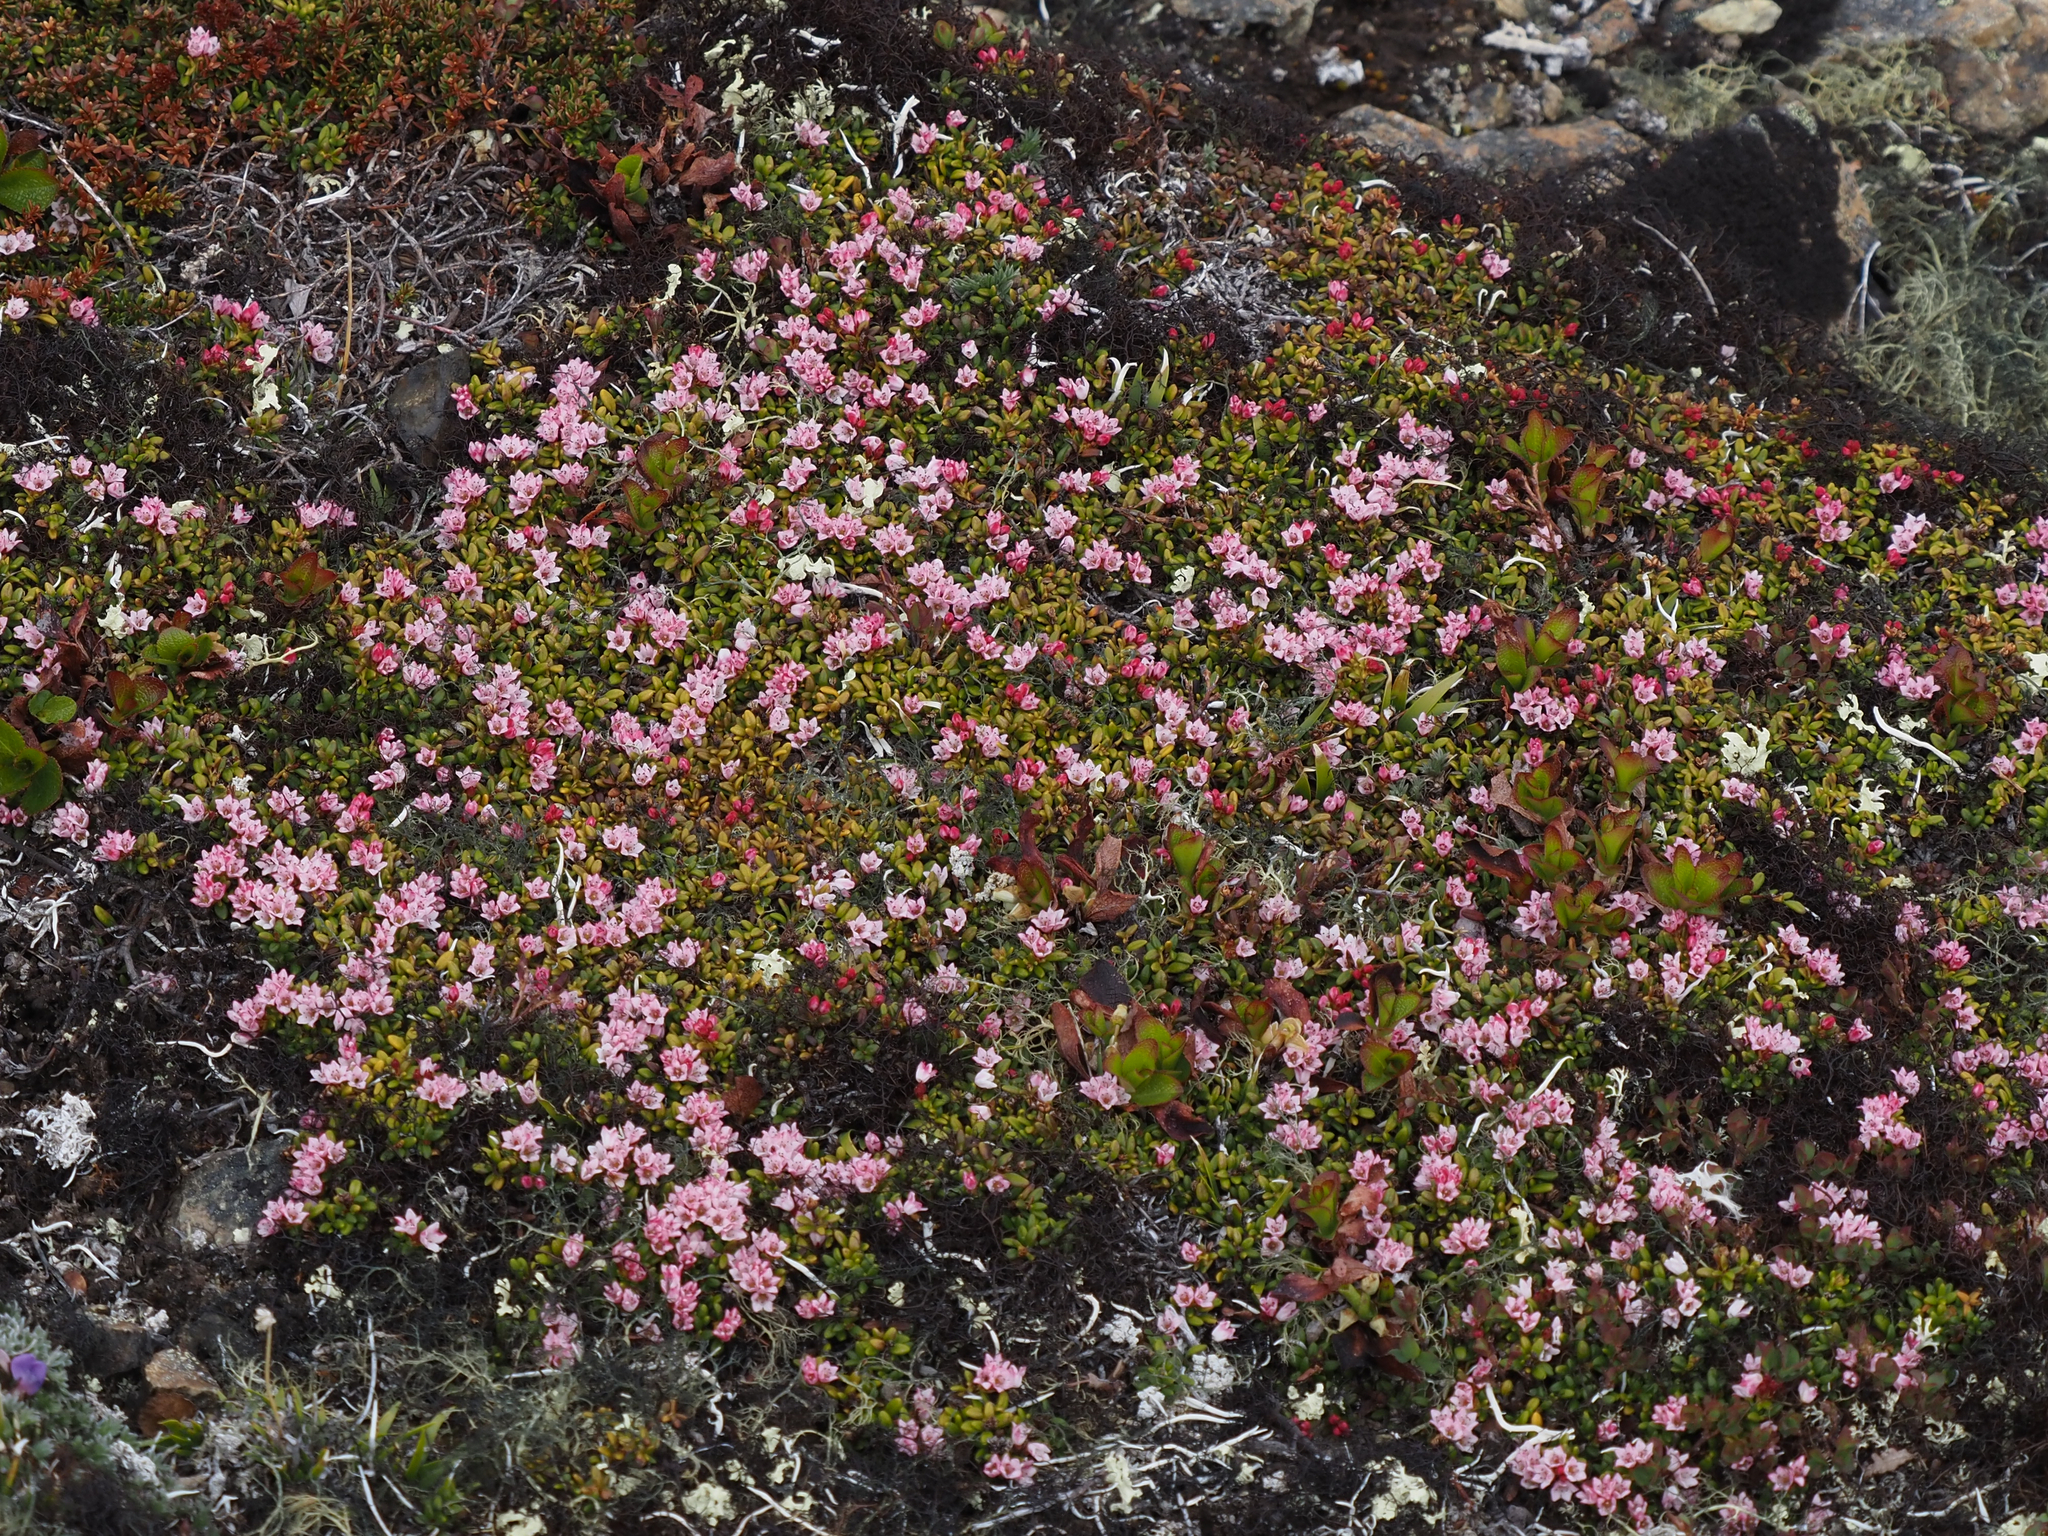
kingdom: Plantae
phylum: Tracheophyta
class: Magnoliopsida
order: Ericales
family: Ericaceae
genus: Kalmia
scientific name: Kalmia procumbens
